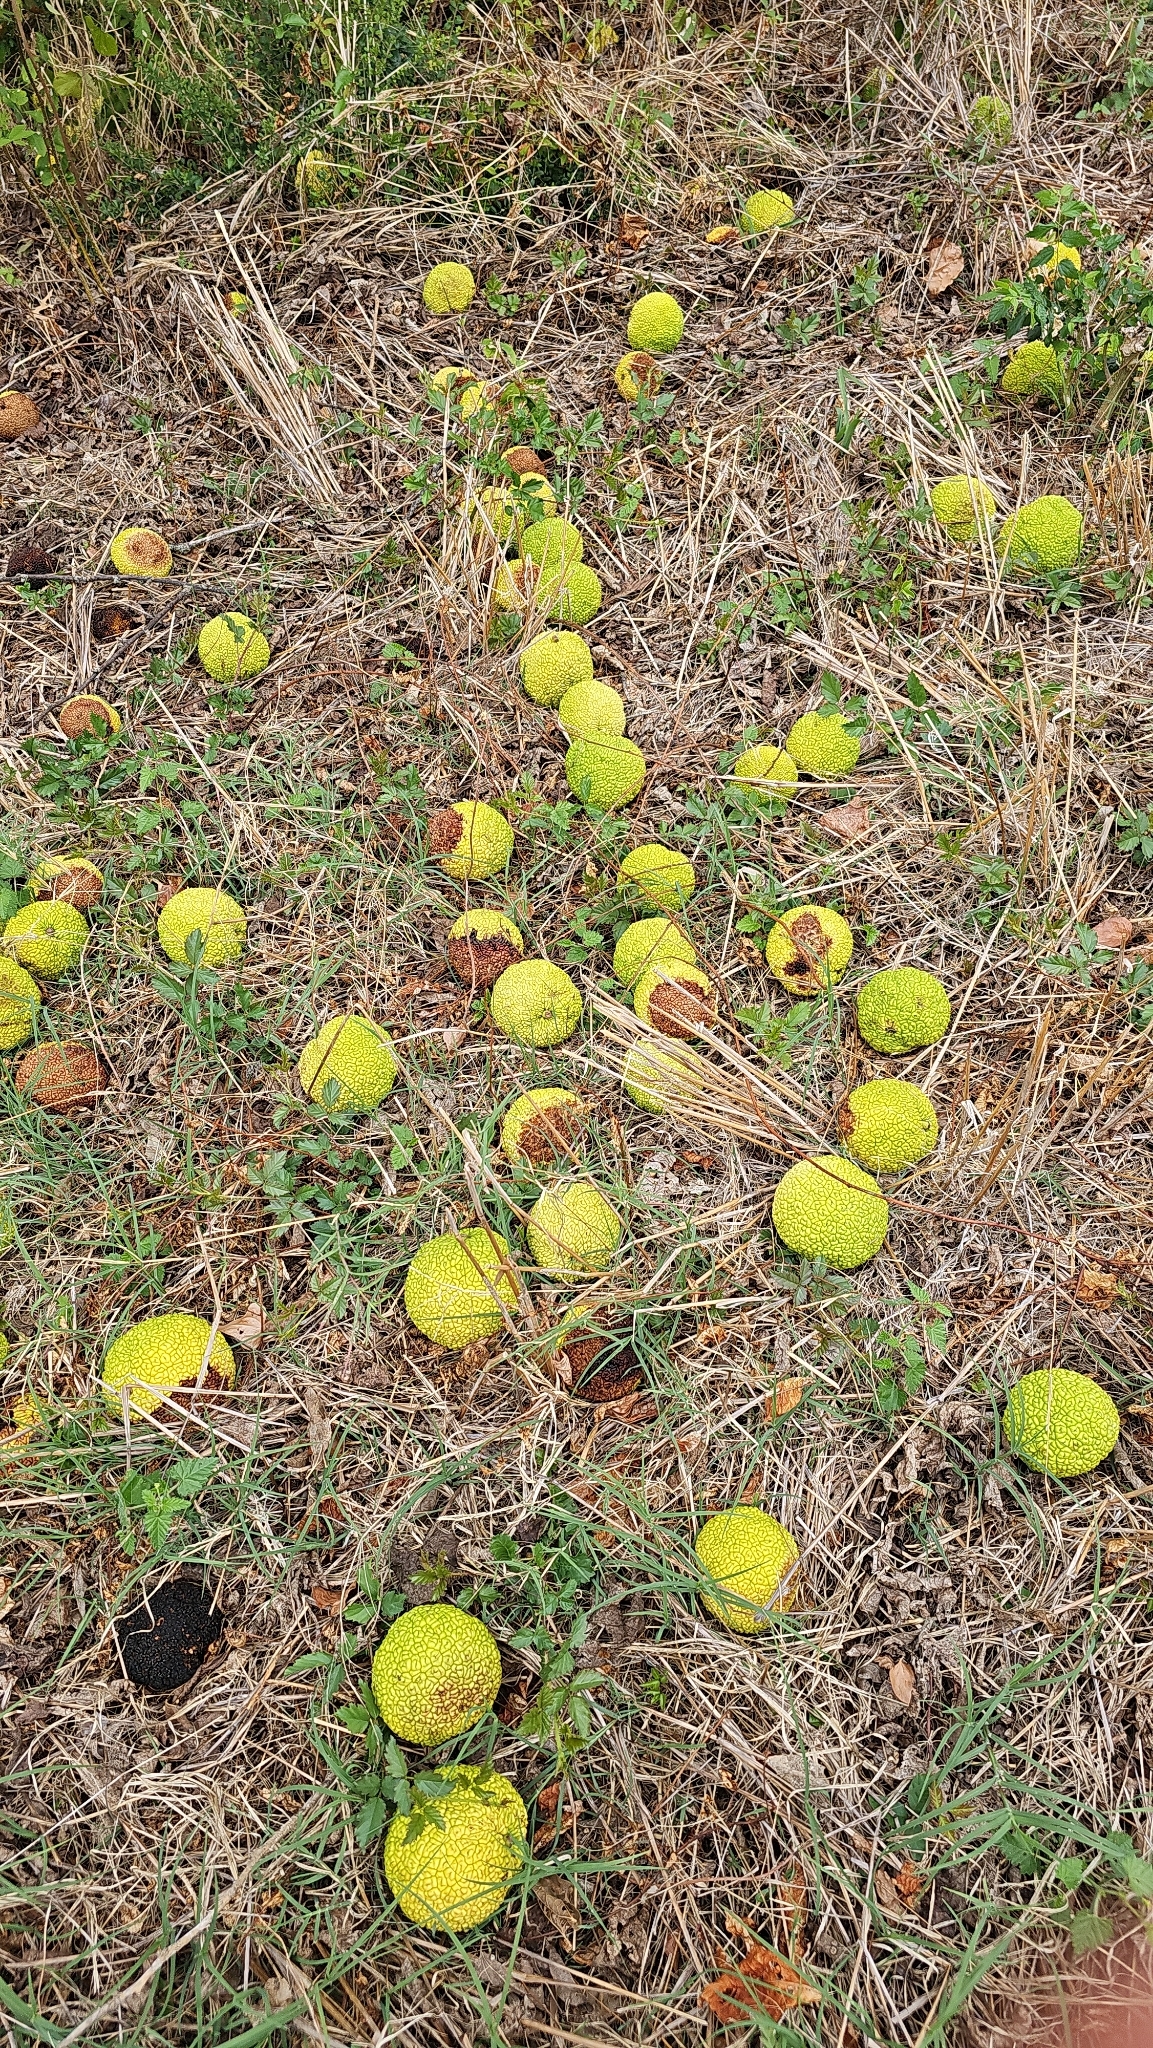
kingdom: Plantae
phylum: Tracheophyta
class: Magnoliopsida
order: Rosales
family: Moraceae
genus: Maclura
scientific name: Maclura pomifera
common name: Osage-orange
